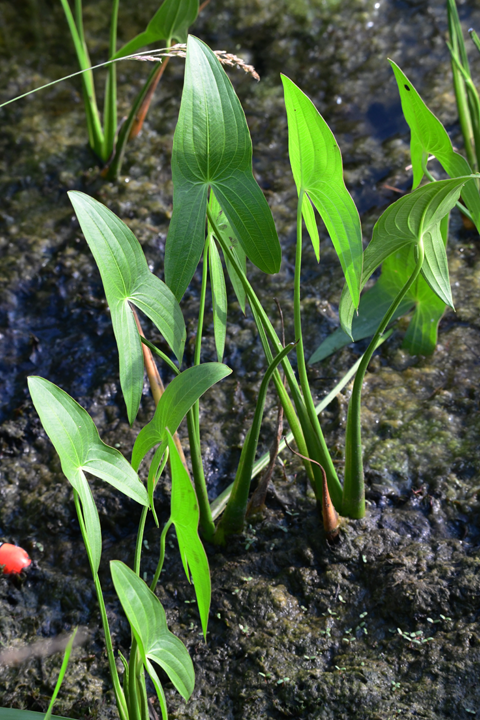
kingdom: Plantae
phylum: Tracheophyta
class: Liliopsida
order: Alismatales
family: Alismataceae
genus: Sagittaria
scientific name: Sagittaria
